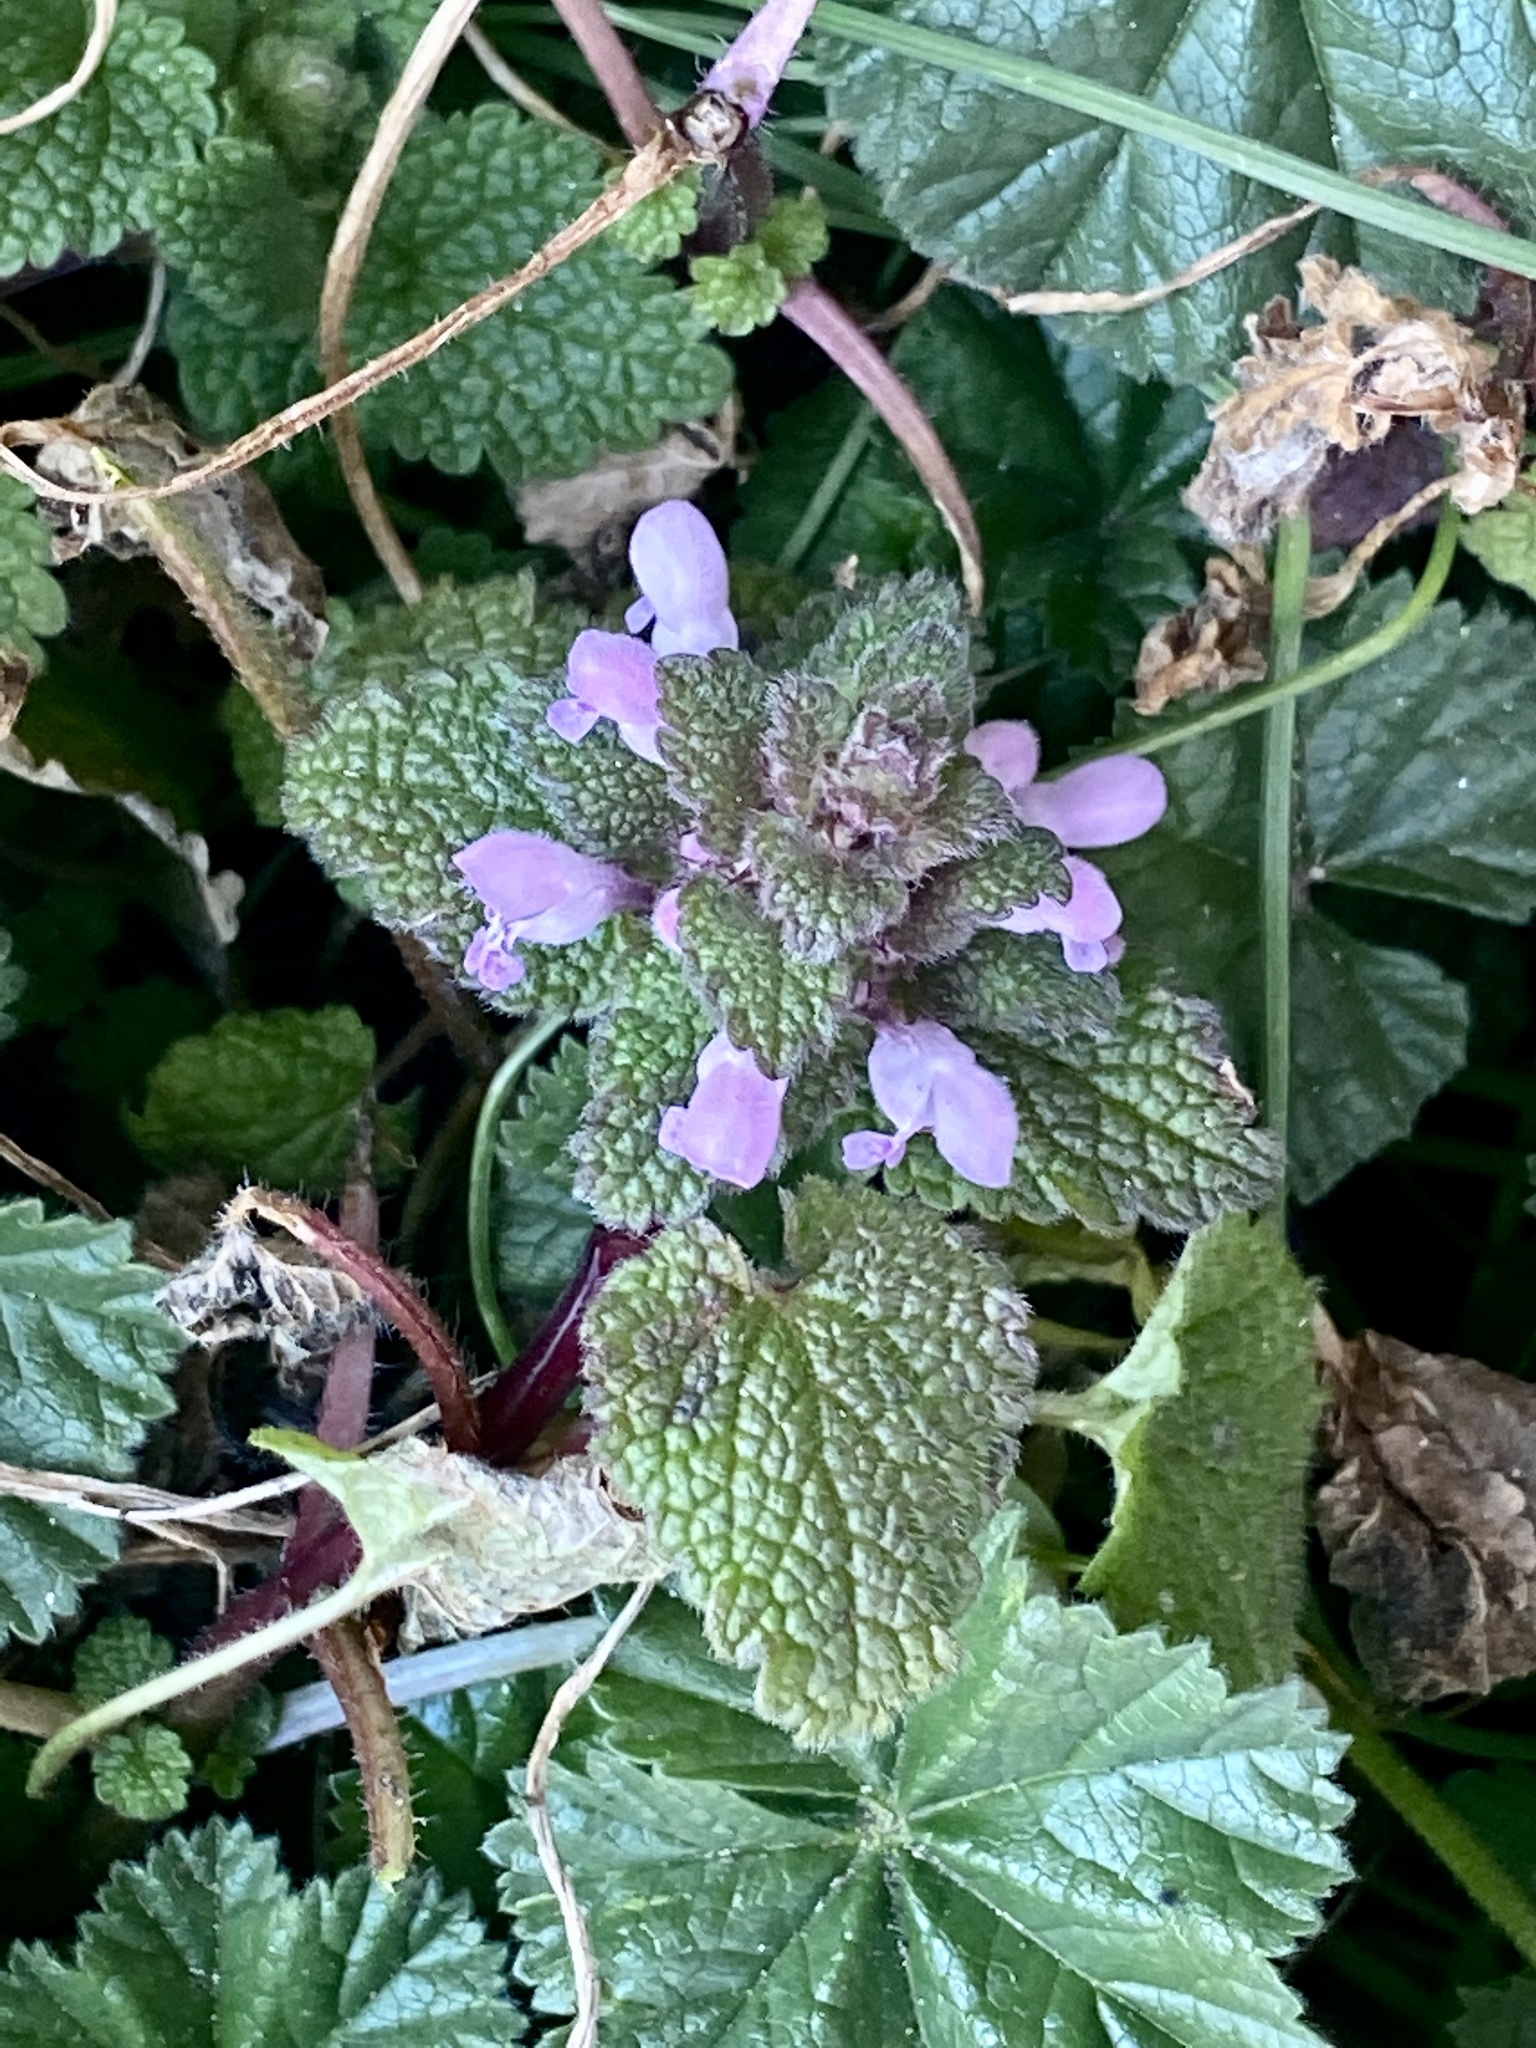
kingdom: Plantae
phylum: Tracheophyta
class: Magnoliopsida
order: Lamiales
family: Lamiaceae
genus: Lamium
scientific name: Lamium purpureum
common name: Red dead-nettle
